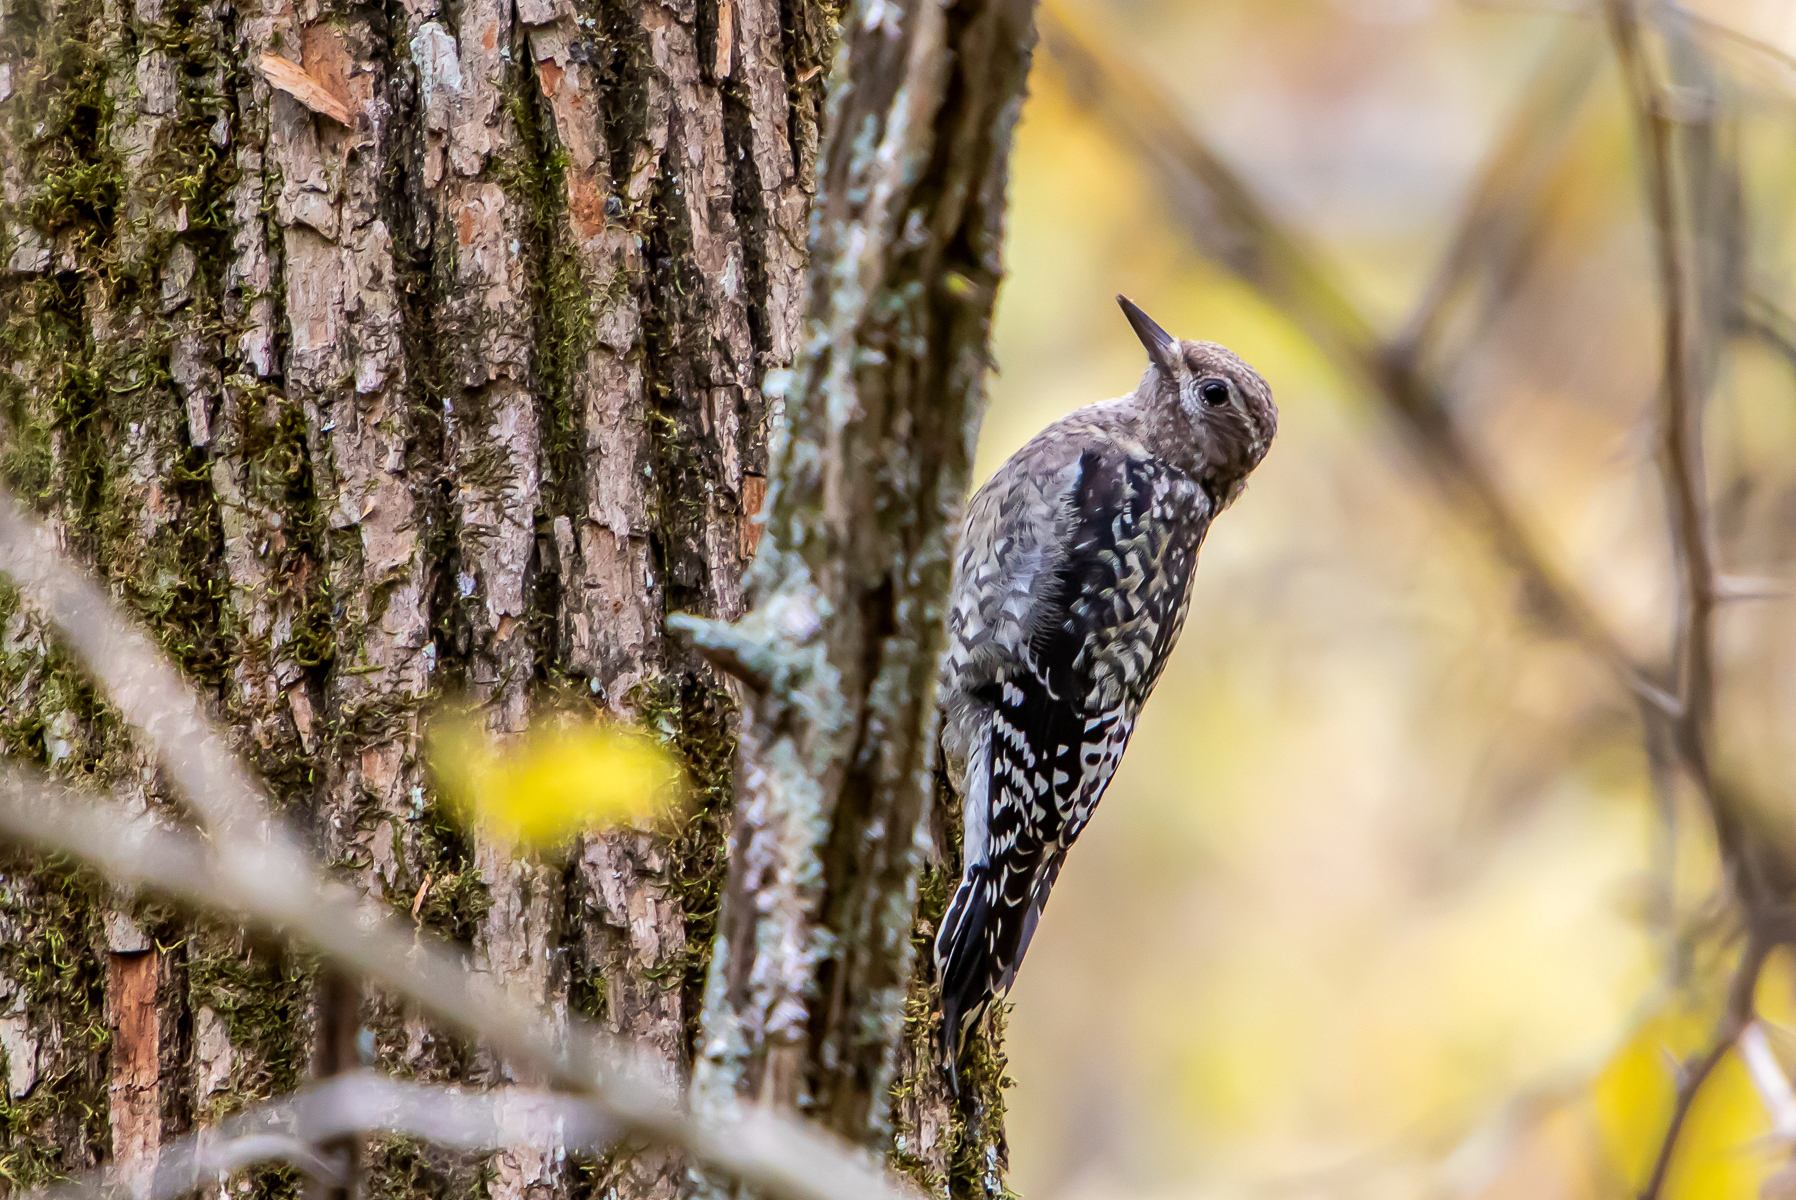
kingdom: Animalia
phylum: Chordata
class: Aves
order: Piciformes
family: Picidae
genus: Sphyrapicus
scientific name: Sphyrapicus varius
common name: Yellow-bellied sapsucker
